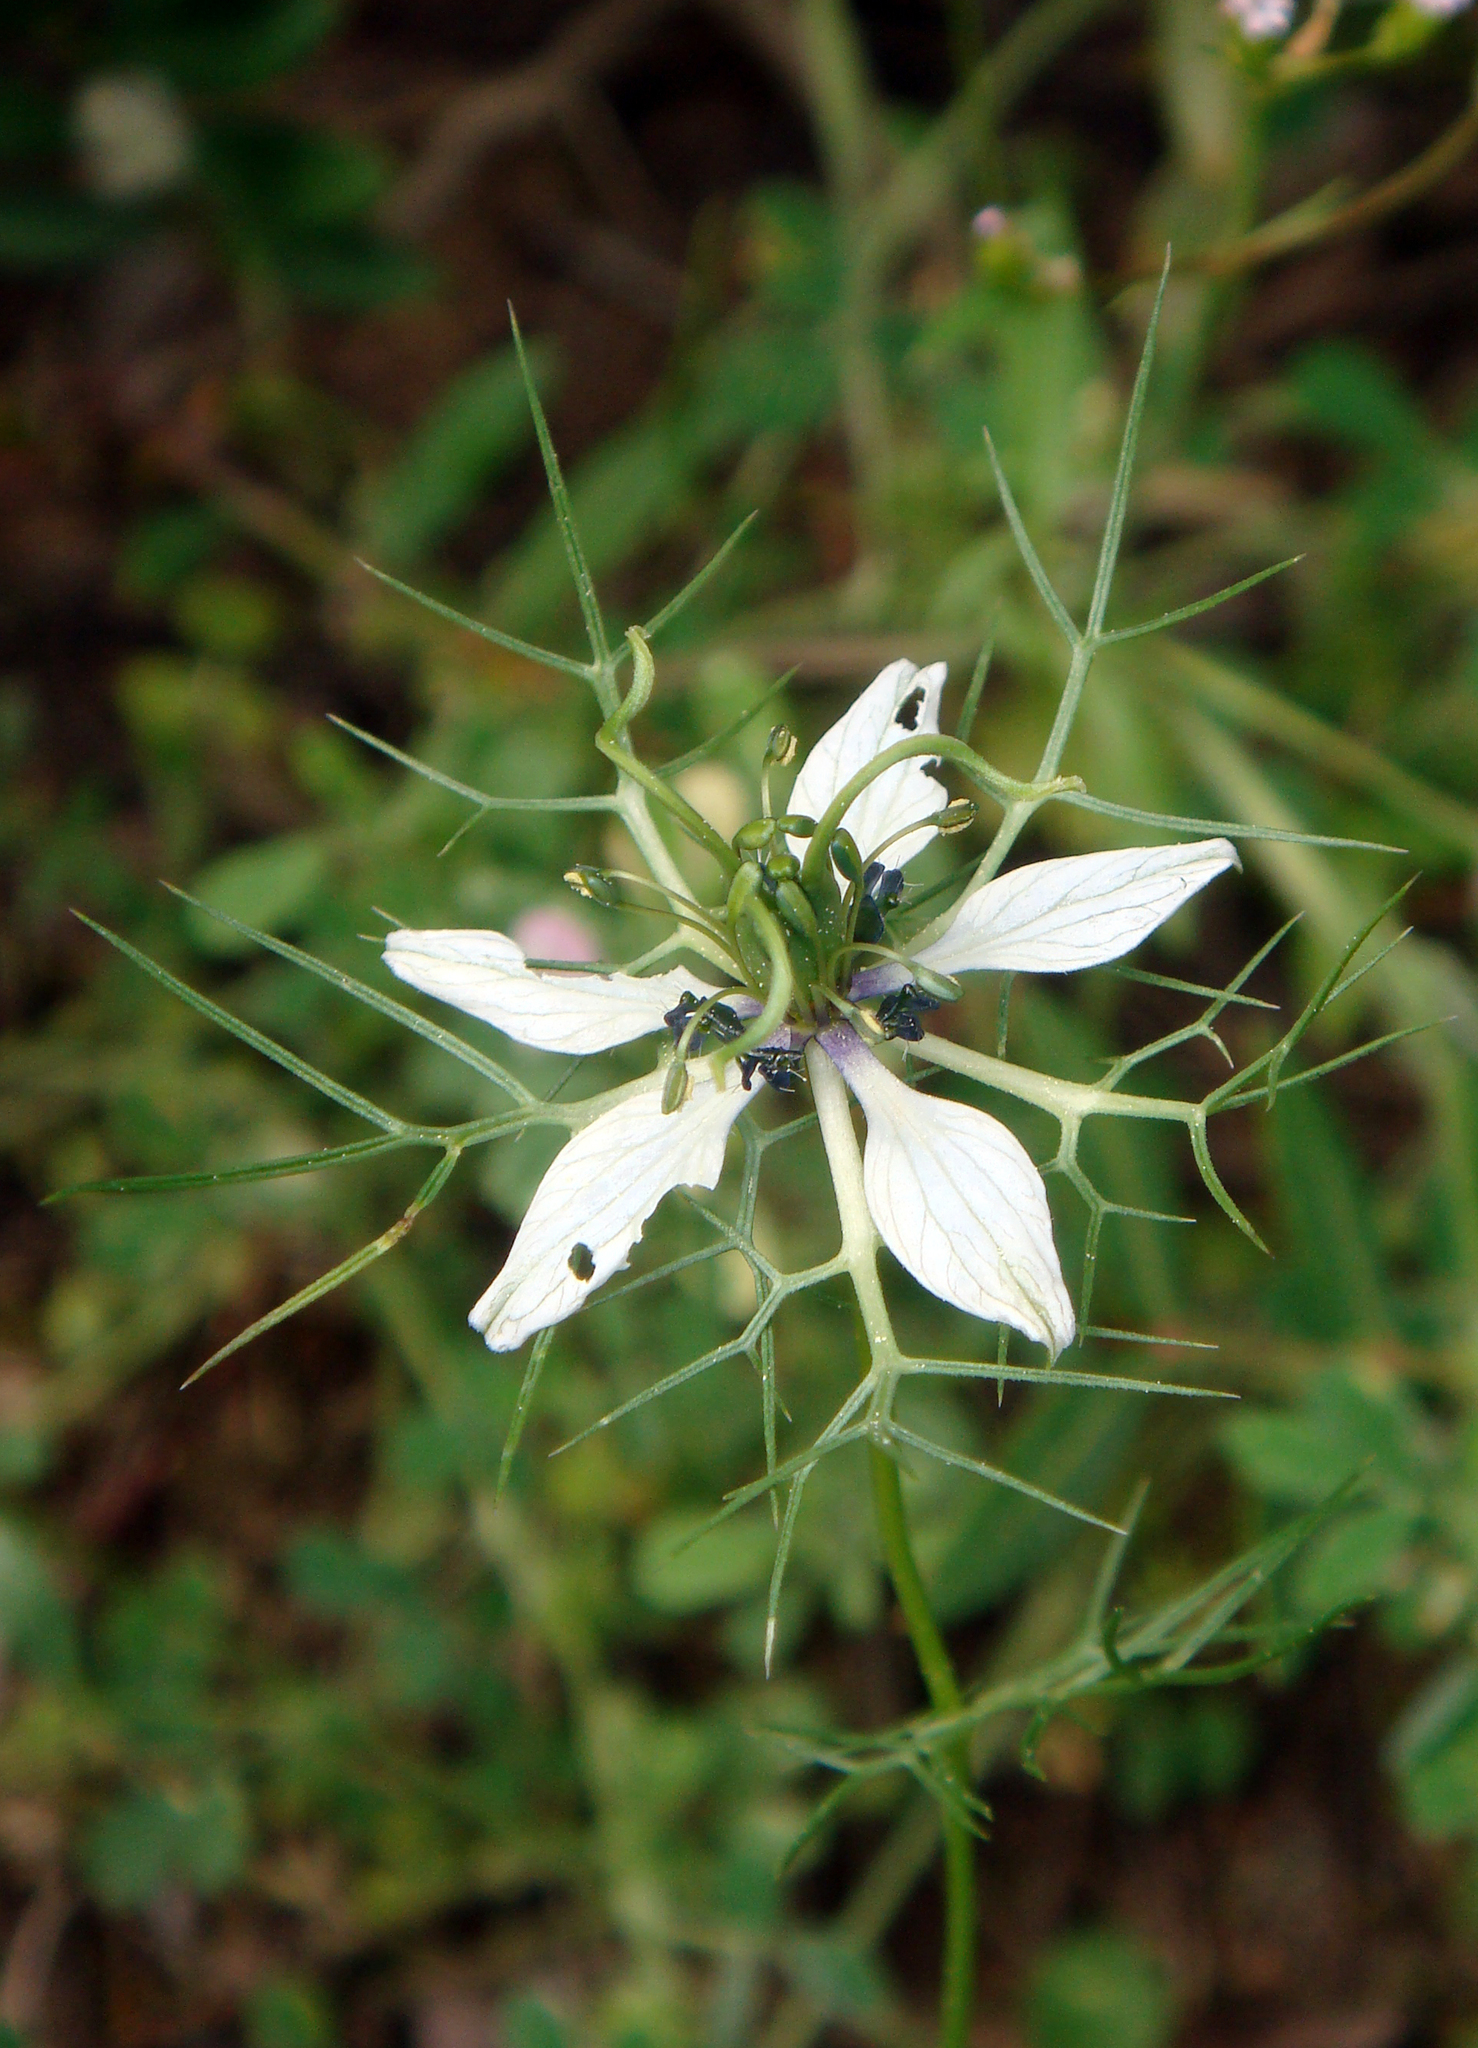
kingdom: Plantae
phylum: Tracheophyta
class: Magnoliopsida
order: Ranunculales
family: Ranunculaceae
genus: Nigella
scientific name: Nigella damascena
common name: Love-in-a-mist
